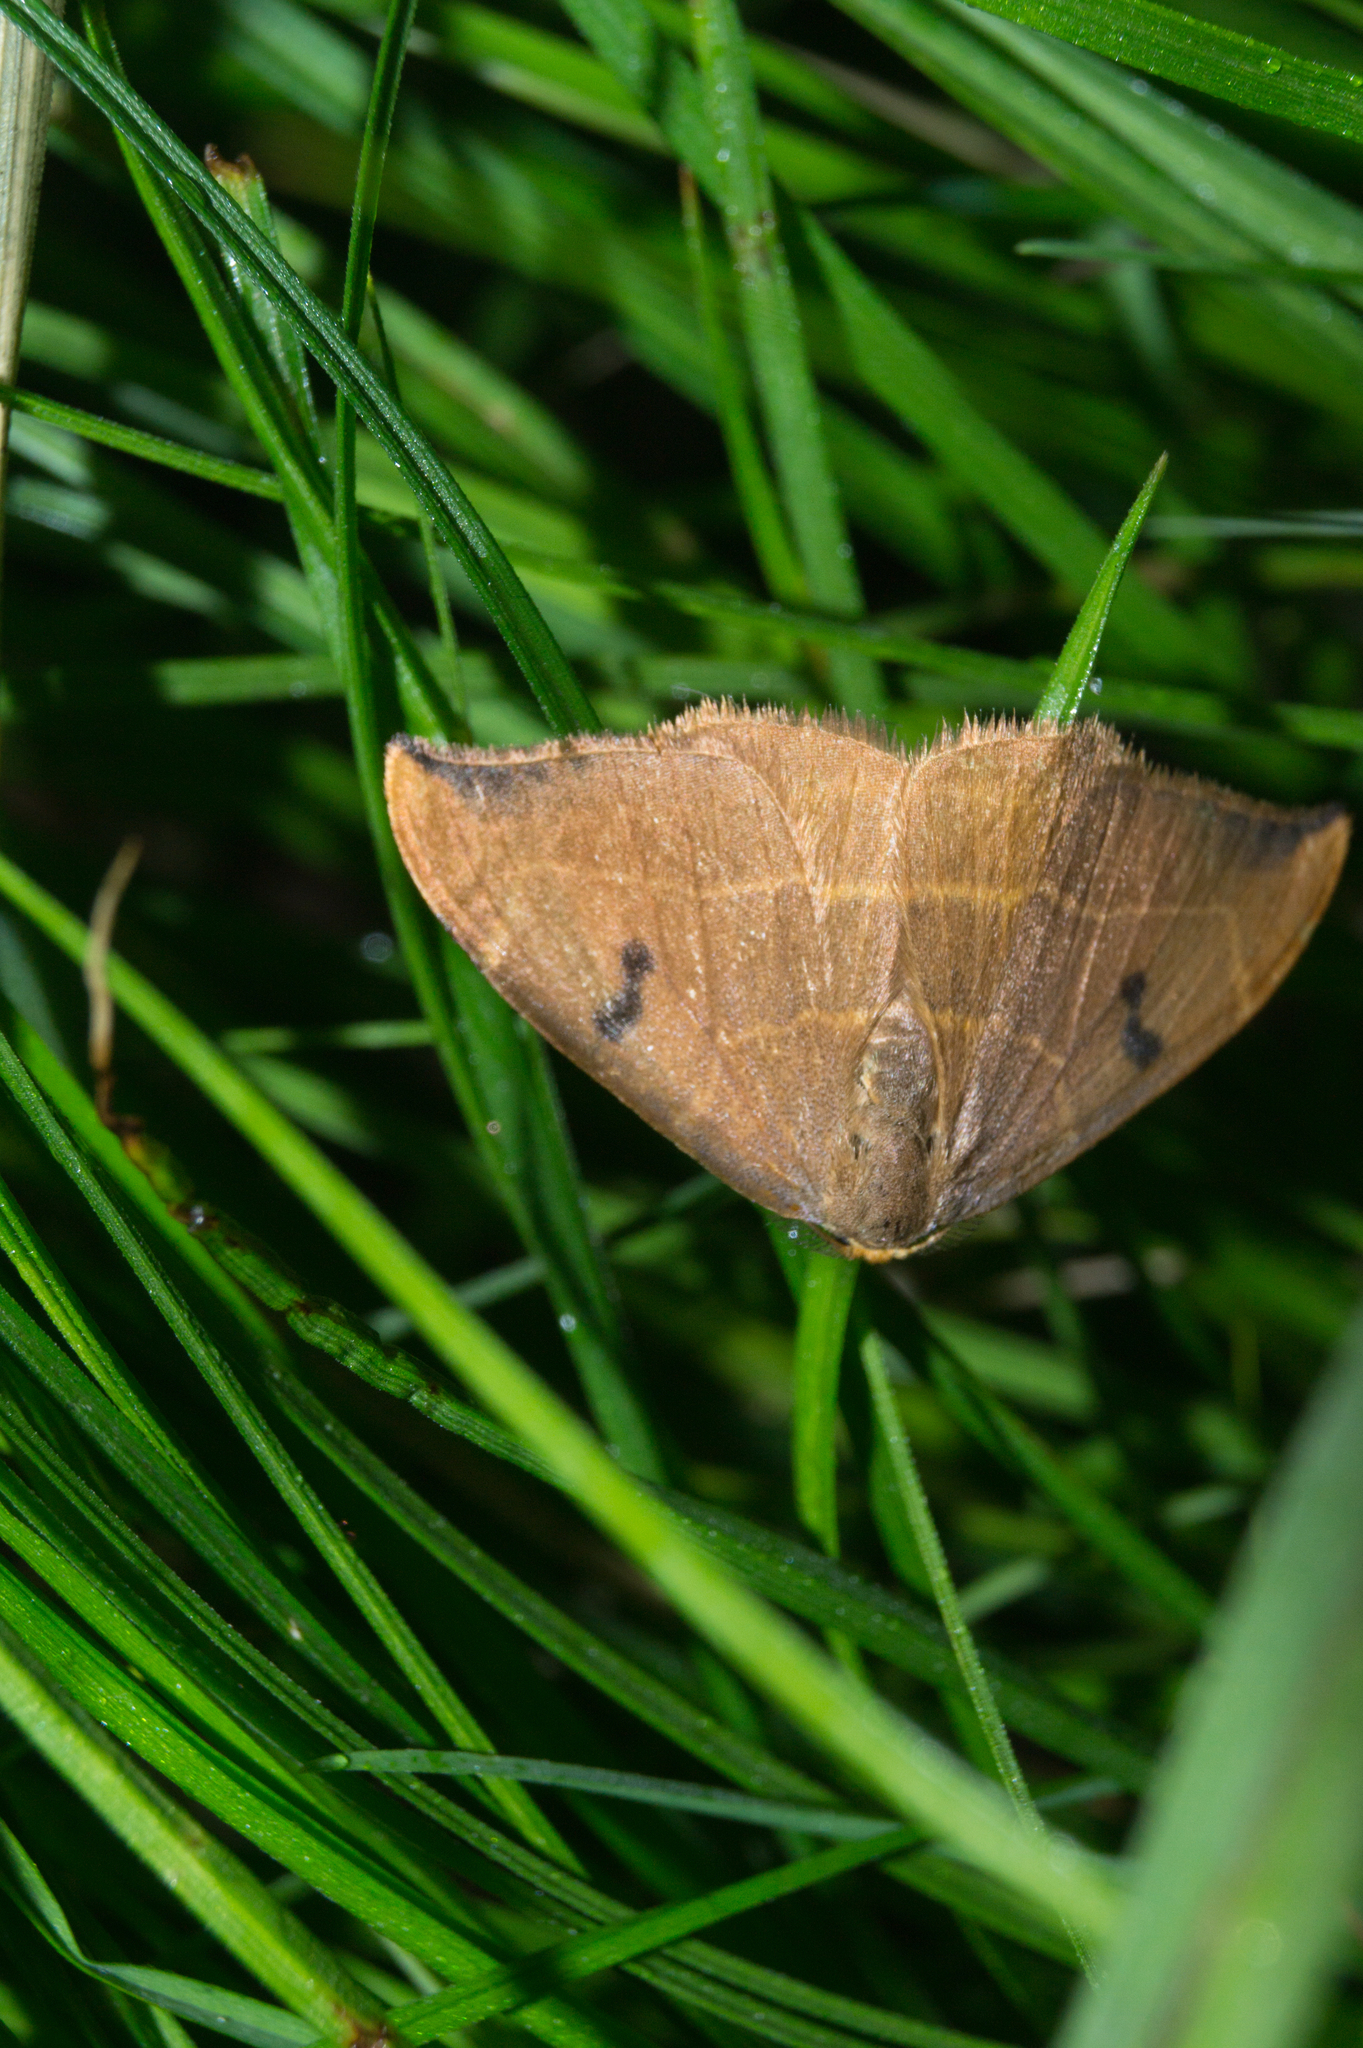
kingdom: Animalia
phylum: Arthropoda
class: Insecta
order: Lepidoptera
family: Drepanidae
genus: Watsonalla
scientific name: Watsonalla binaria
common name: Oak hook-tip
